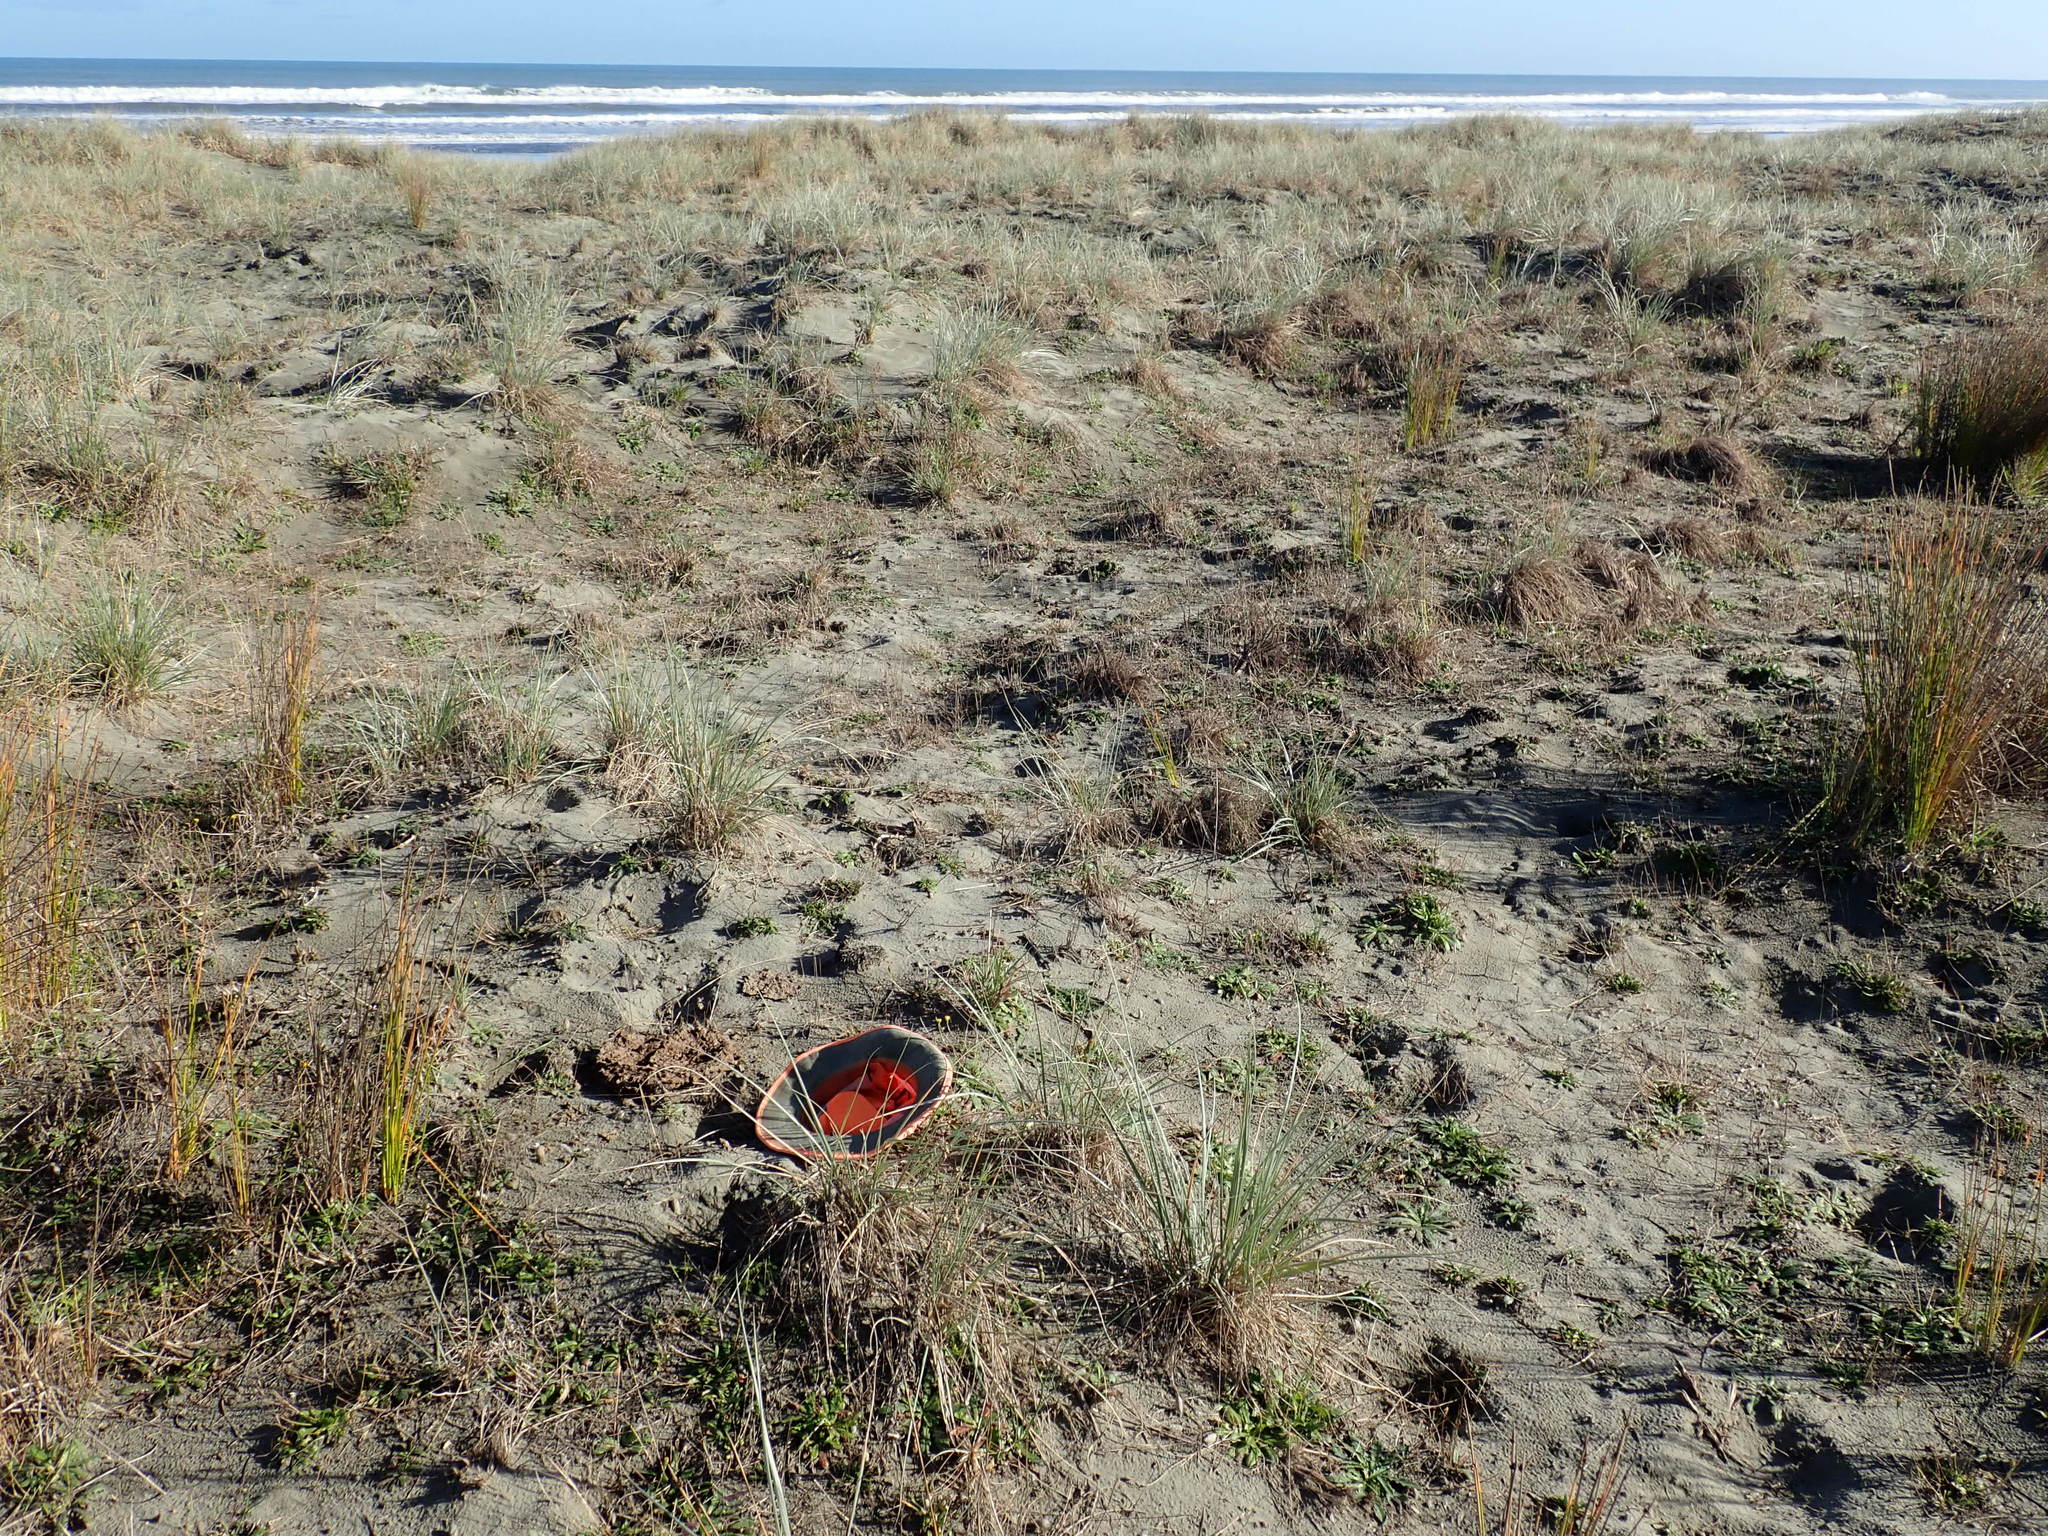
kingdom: Animalia
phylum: Arthropoda
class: Malacostraca
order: Isopoda
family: Porcellionidae
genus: Porcellio
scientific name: Porcellio scaber
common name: Common rough woodlouse
